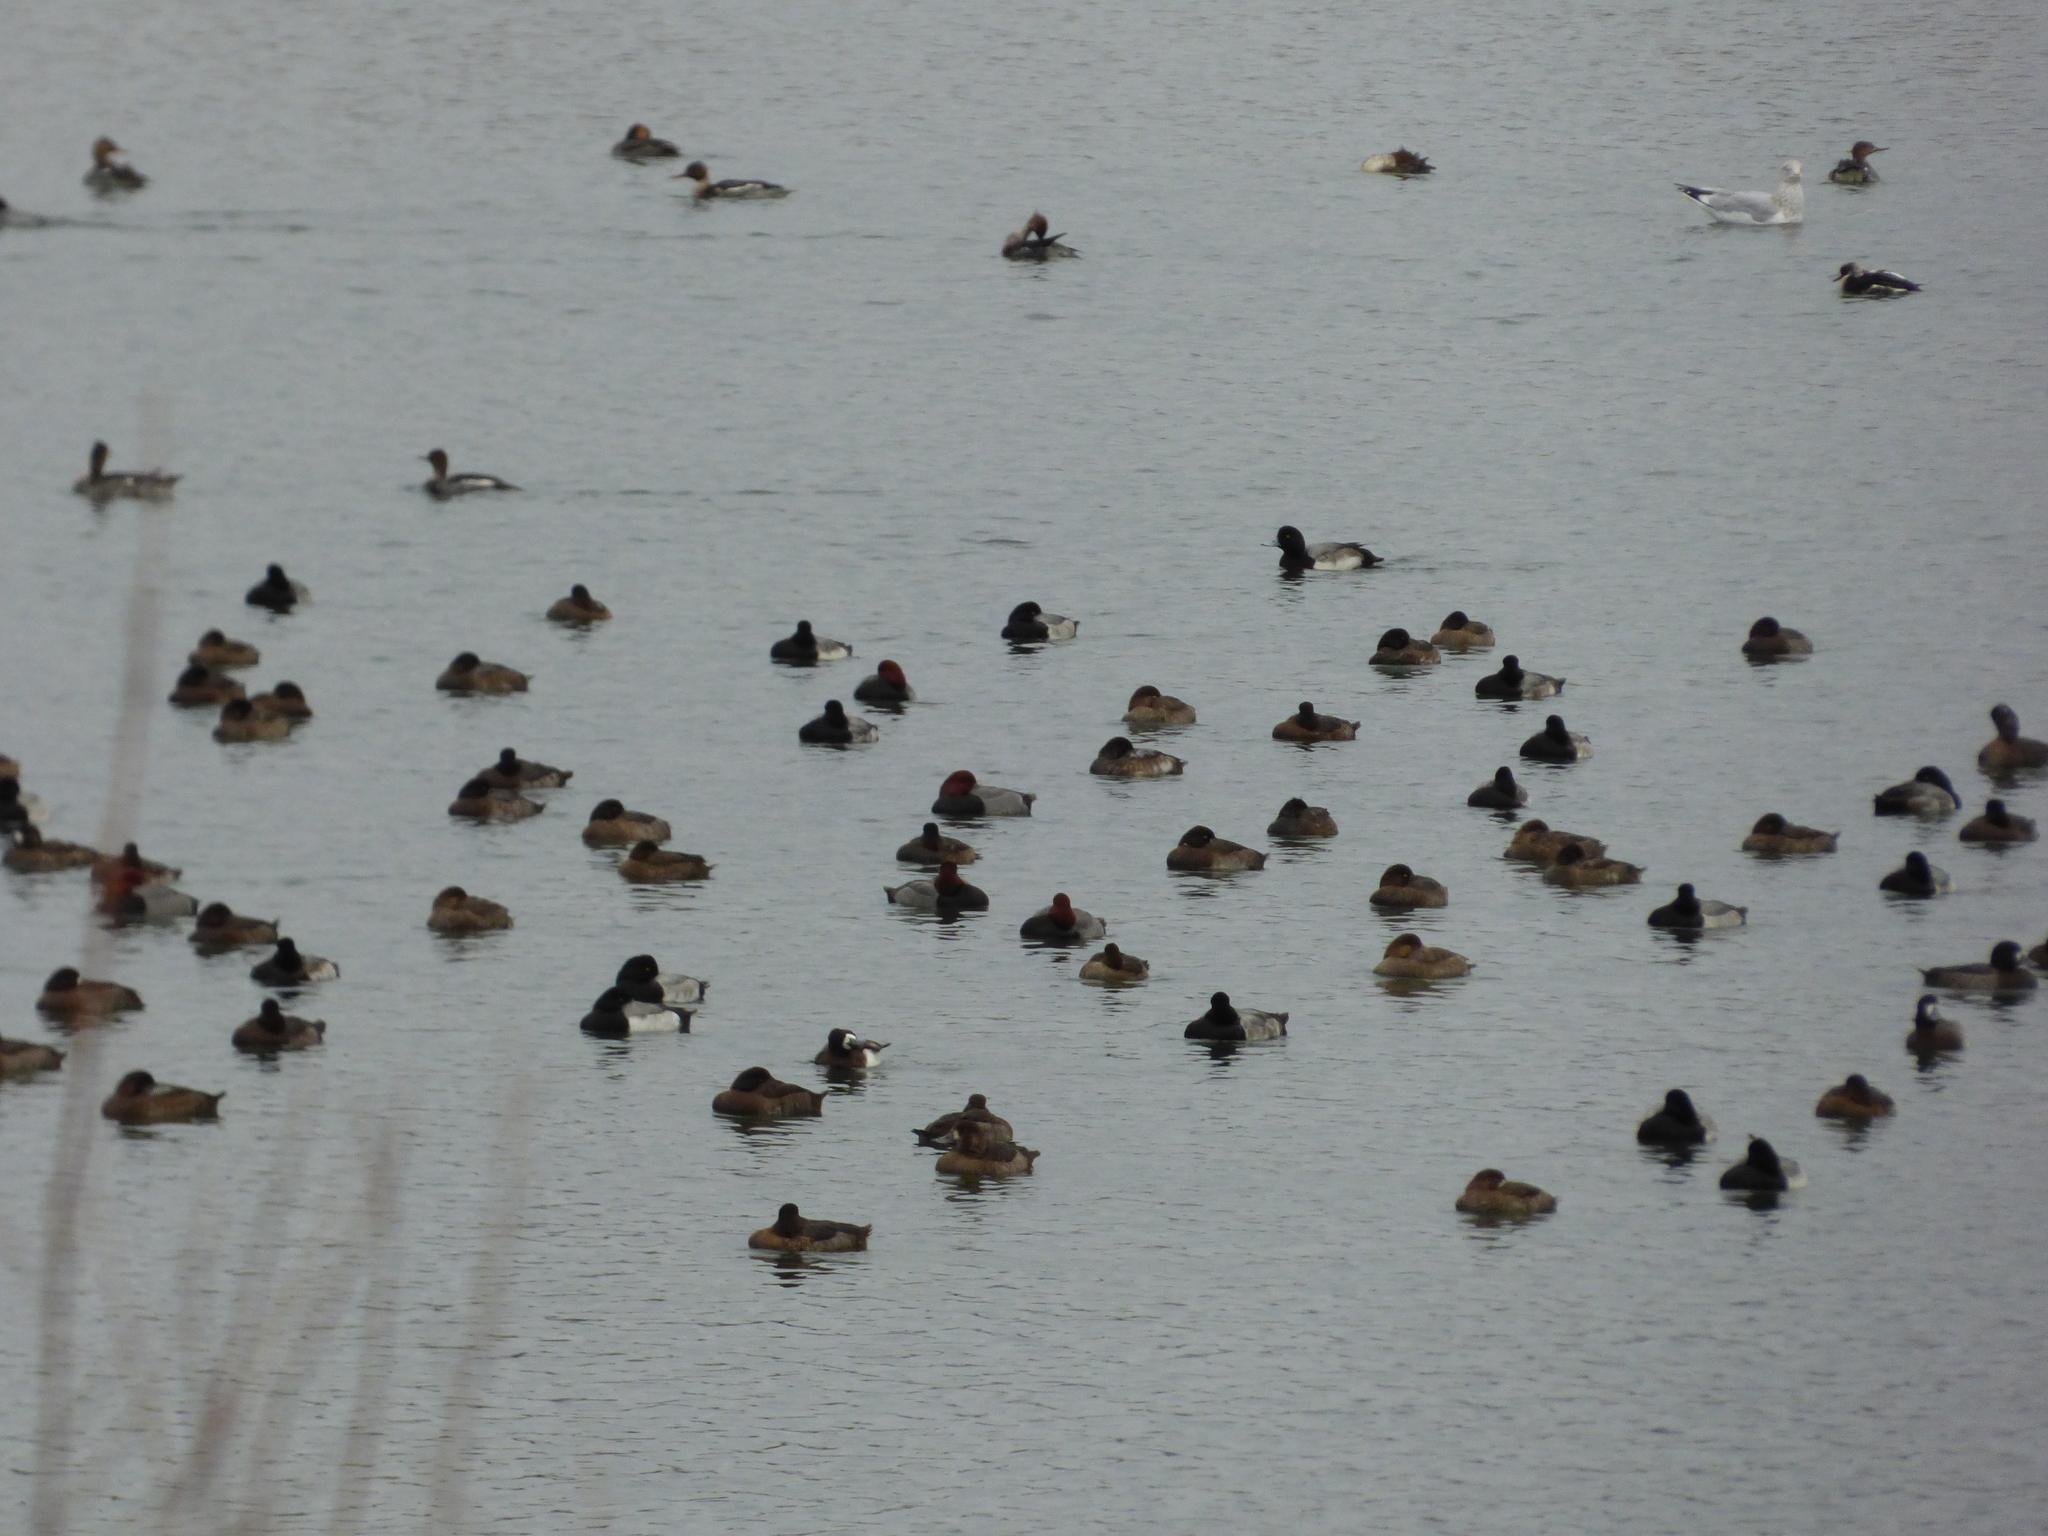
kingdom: Animalia
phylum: Chordata
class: Aves
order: Anseriformes
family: Anatidae
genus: Aythya
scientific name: Aythya americana
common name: Redhead
